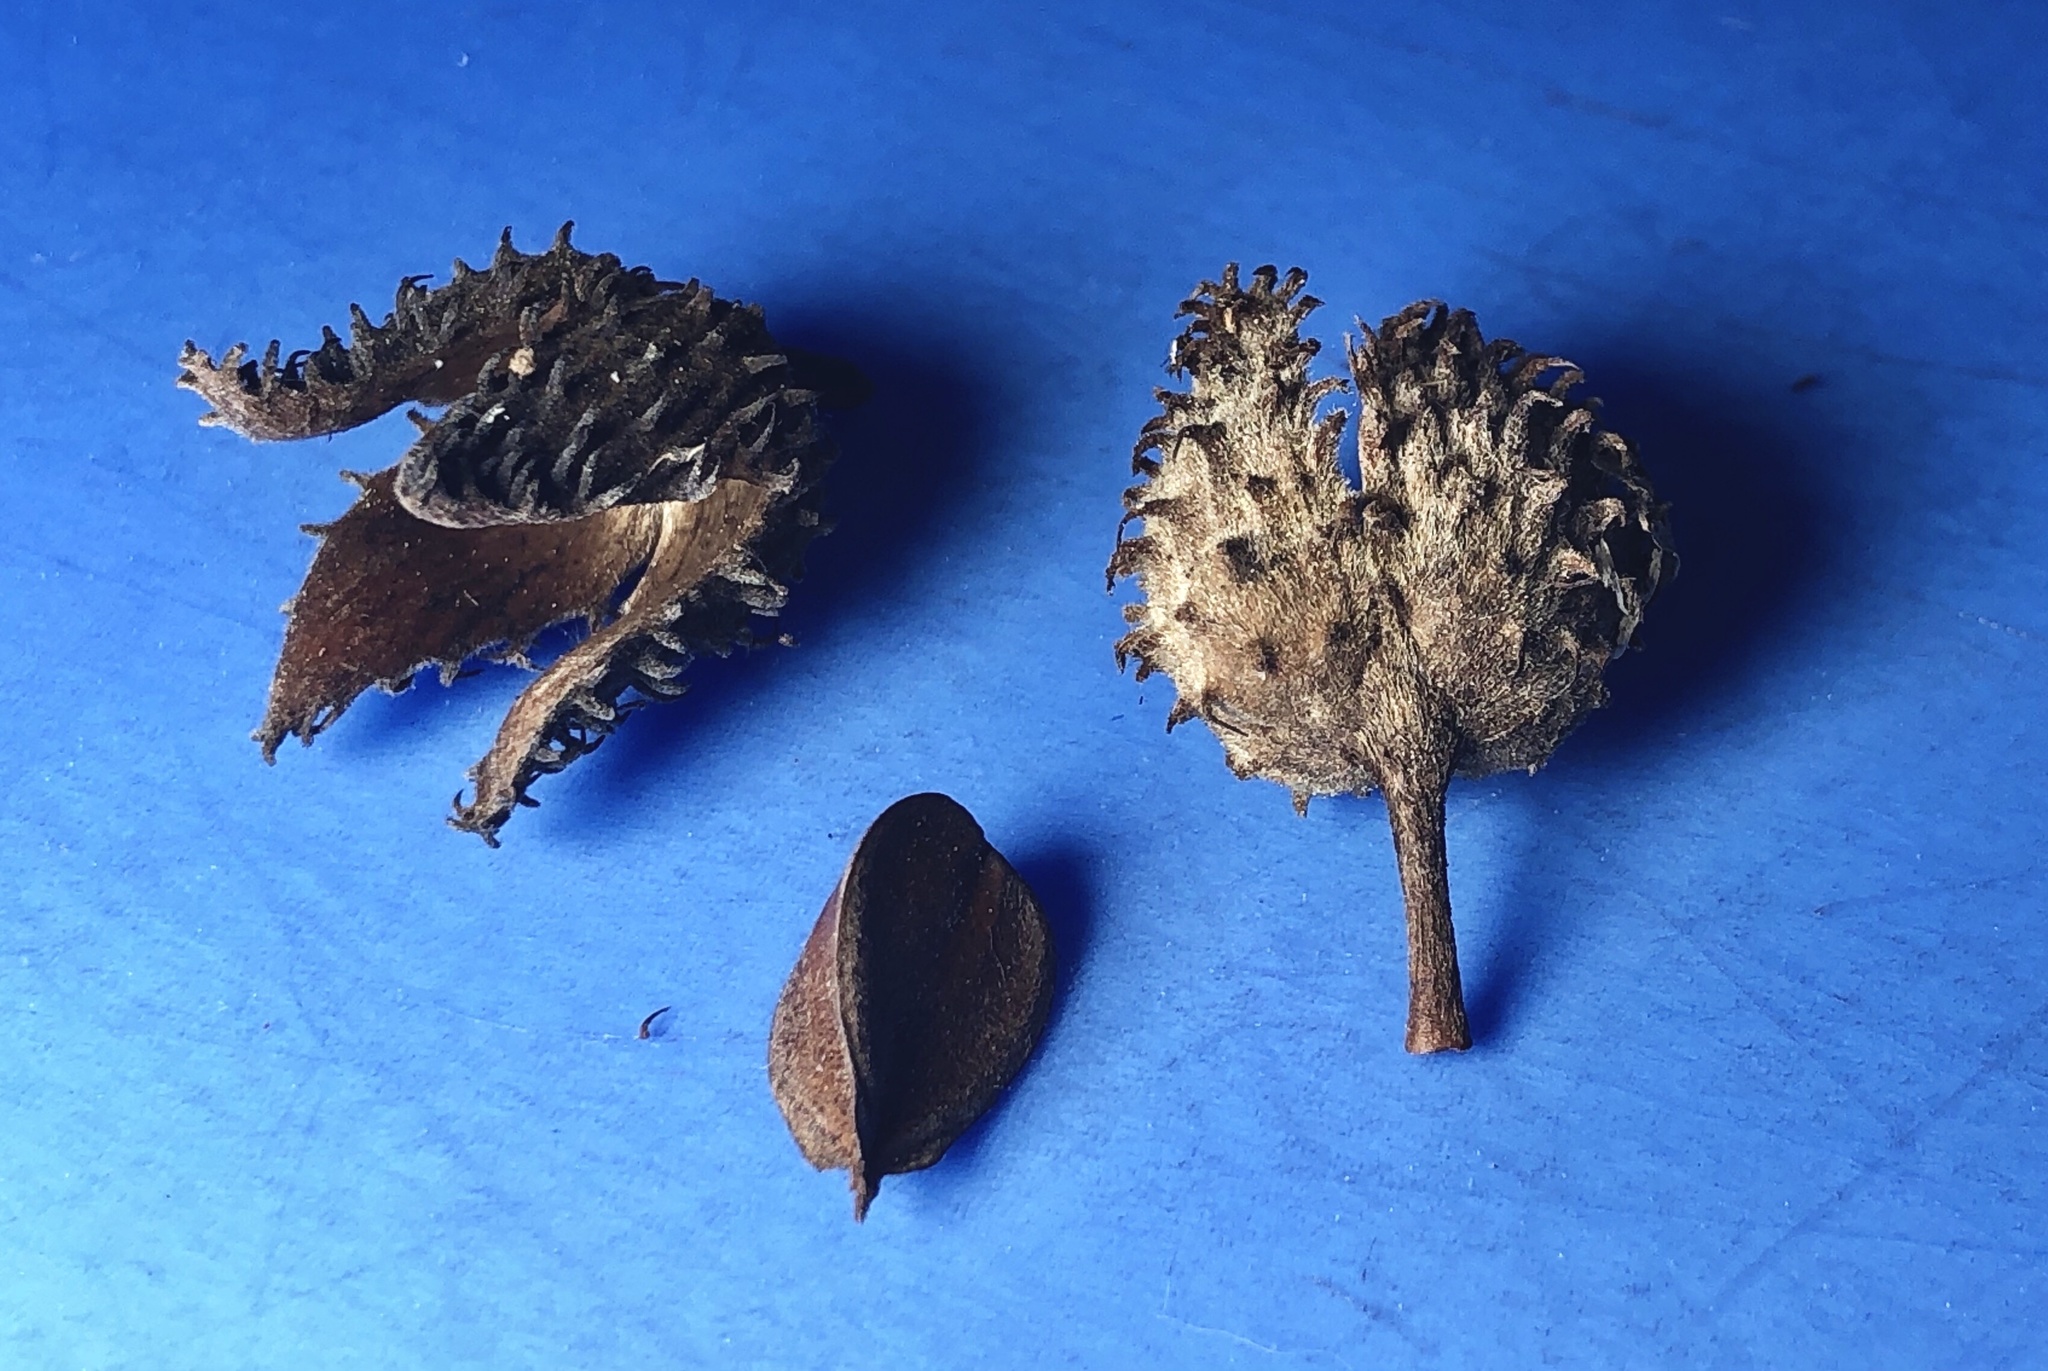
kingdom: Plantae
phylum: Tracheophyta
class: Magnoliopsida
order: Fagales
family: Fagaceae
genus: Fagus
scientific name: Fagus grandifolia
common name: American beech
